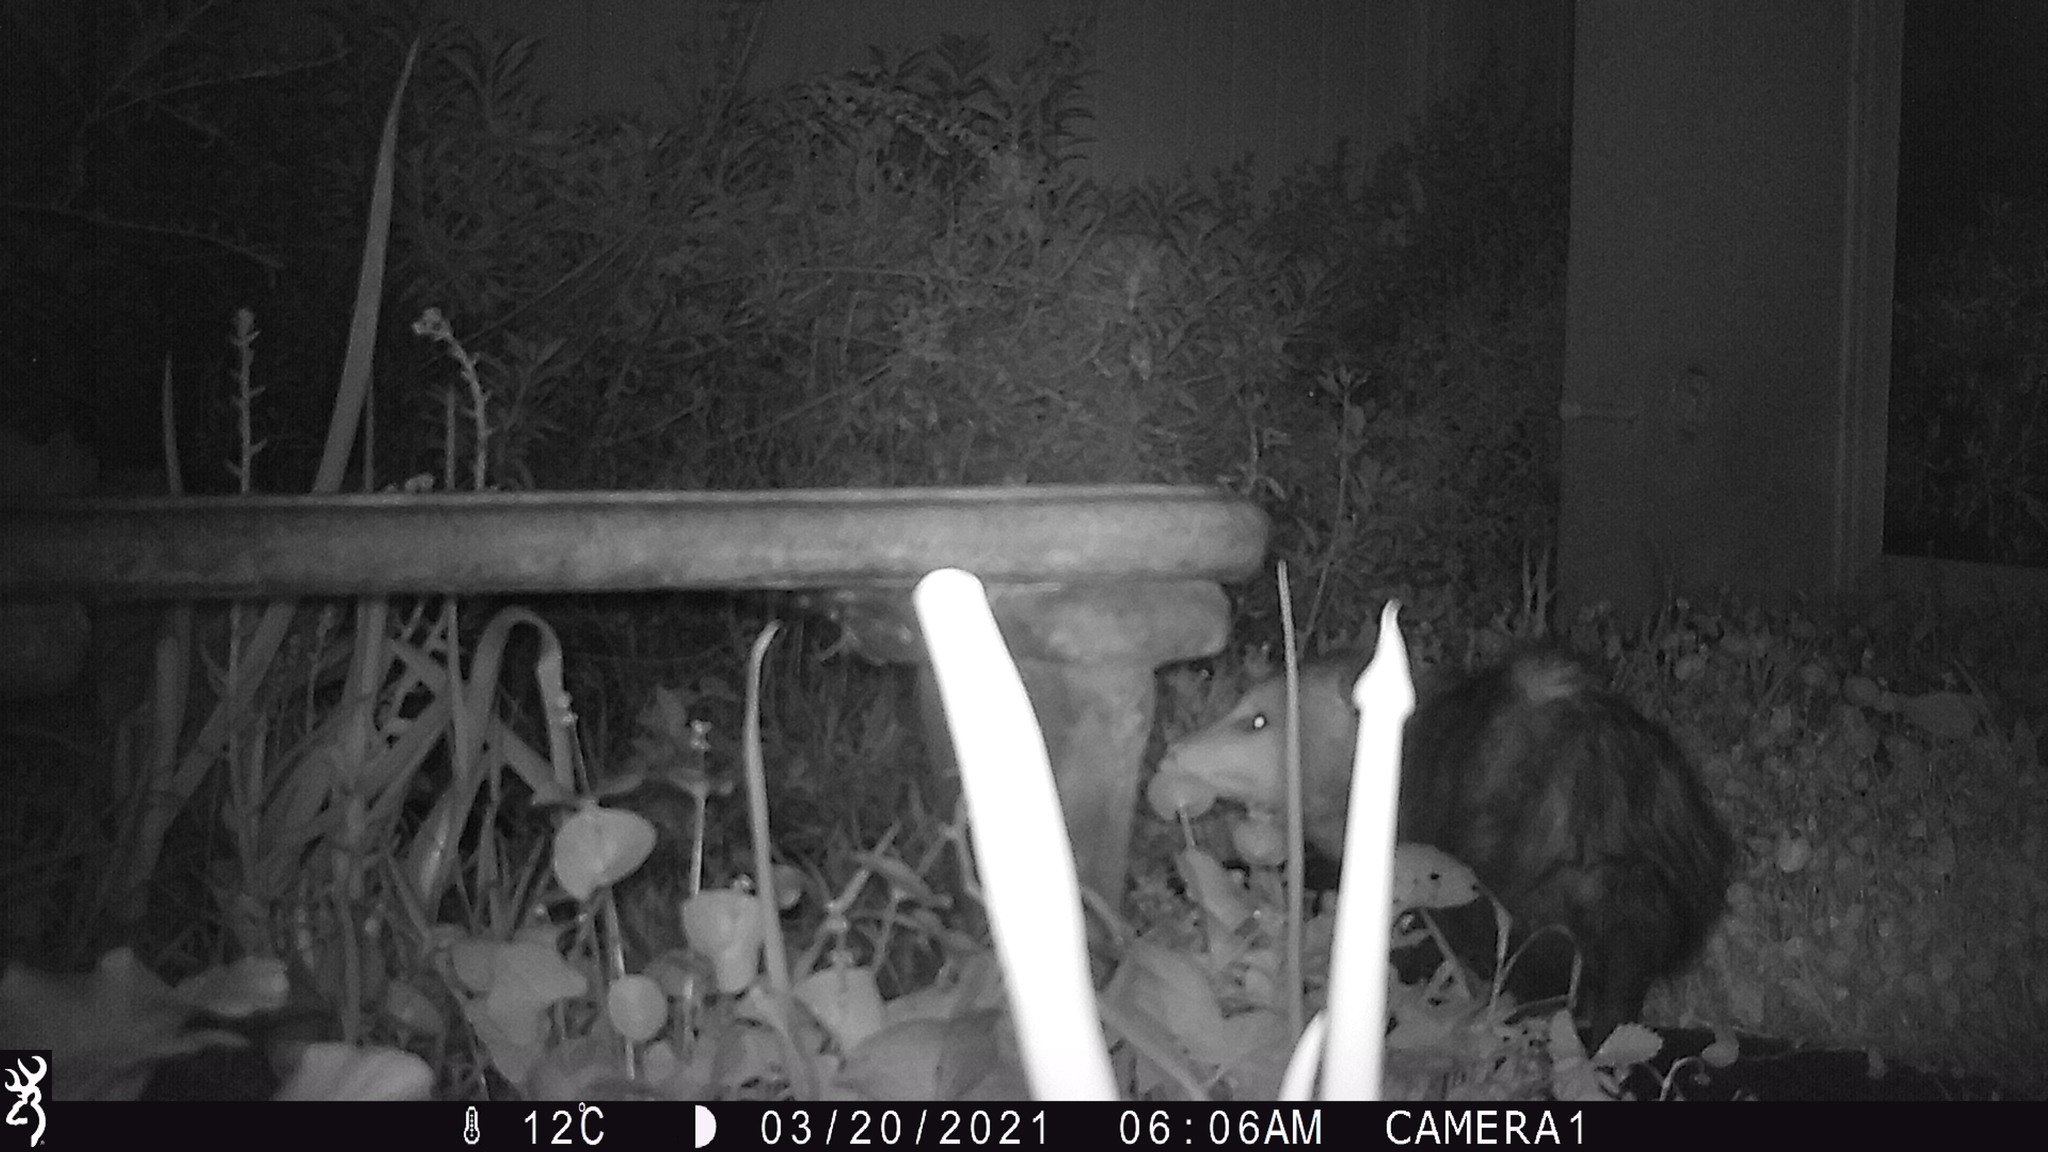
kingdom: Animalia
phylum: Chordata
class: Mammalia
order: Didelphimorphia
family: Didelphidae
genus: Didelphis
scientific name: Didelphis virginiana
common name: Virginia opossum
